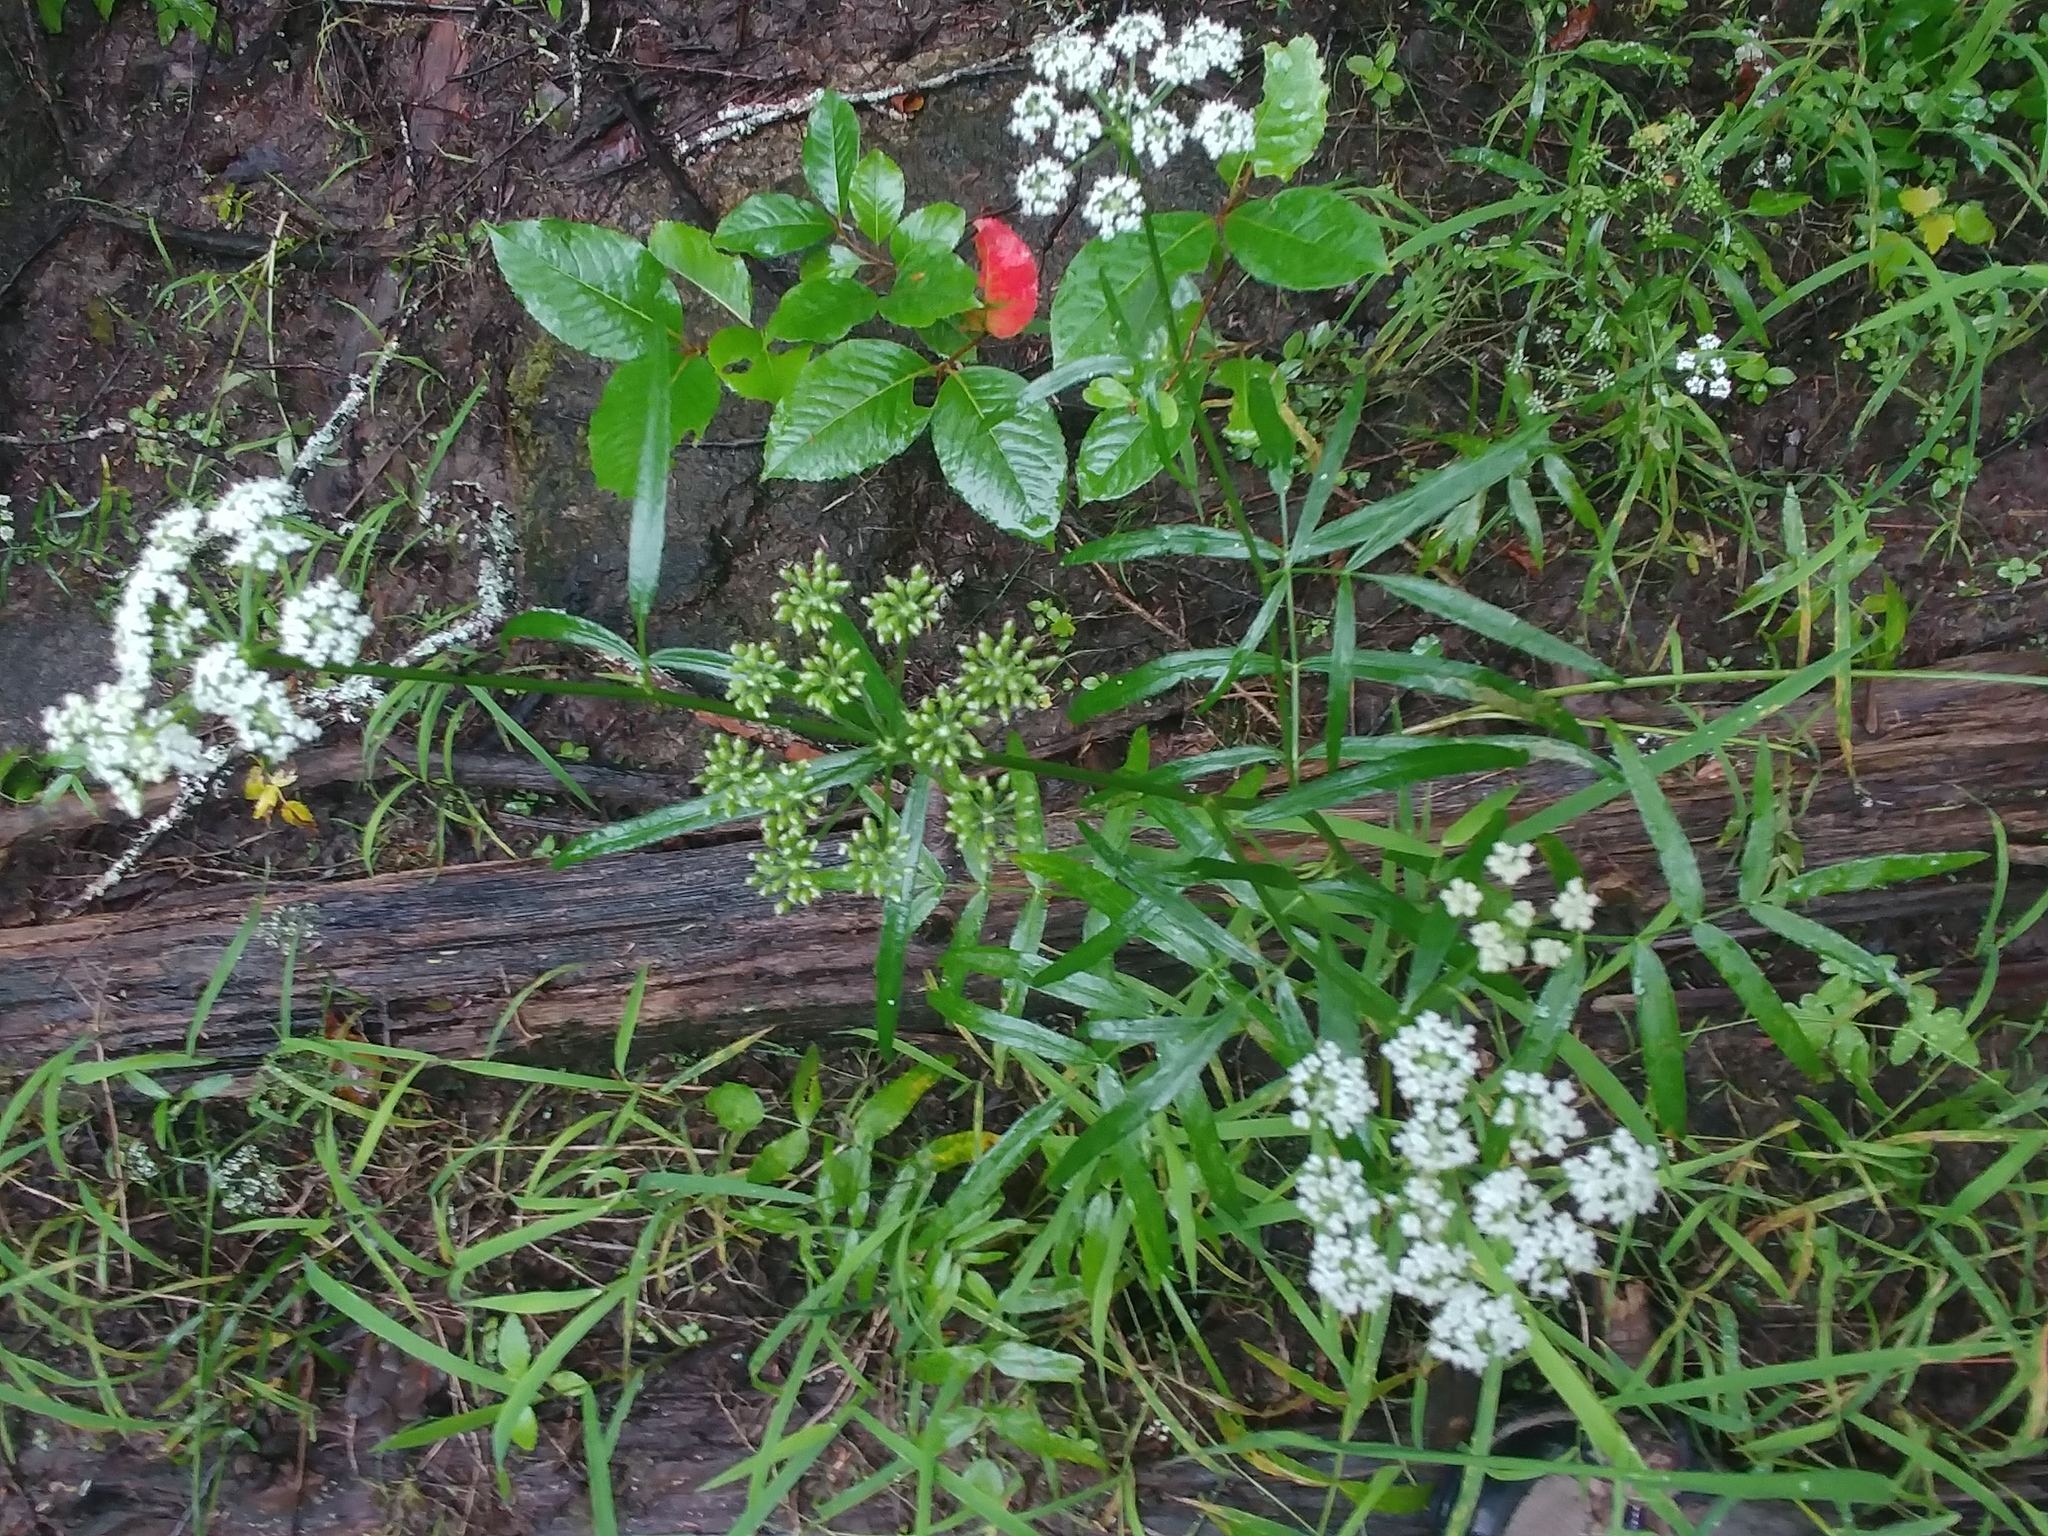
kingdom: Plantae
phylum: Tracheophyta
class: Magnoliopsida
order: Apiales
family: Apiaceae
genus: Sium
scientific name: Sium suave
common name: Hemlock water-parsnip
